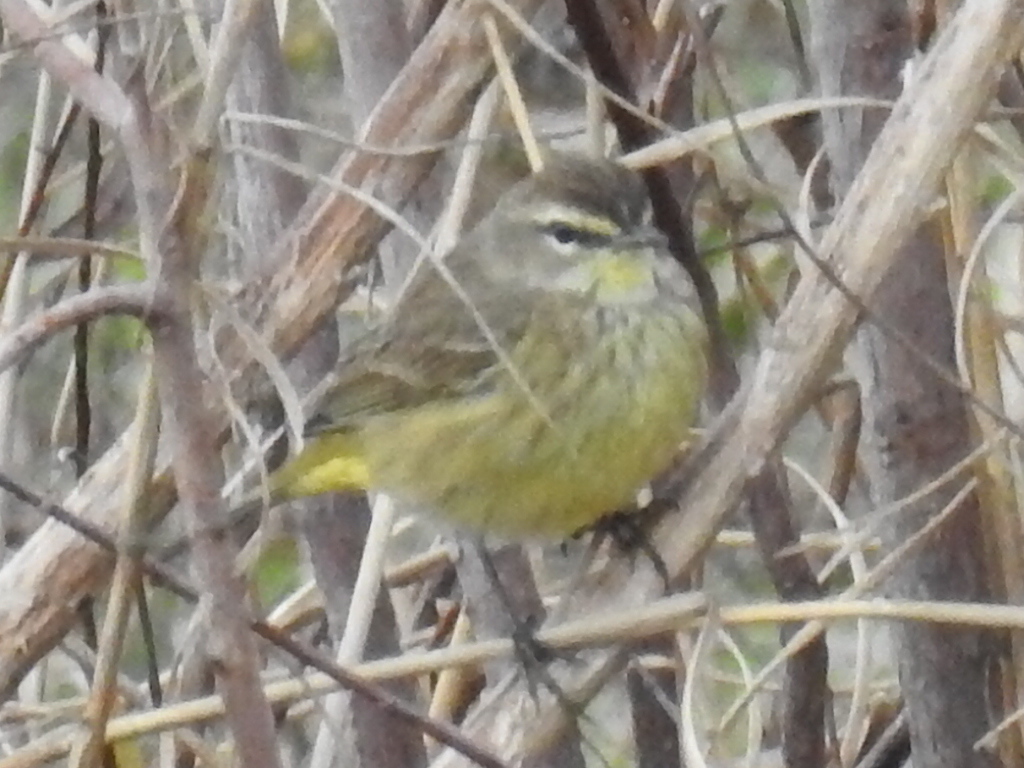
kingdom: Animalia
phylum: Chordata
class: Aves
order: Passeriformes
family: Parulidae
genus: Setophaga
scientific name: Setophaga palmarum
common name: Palm warbler
